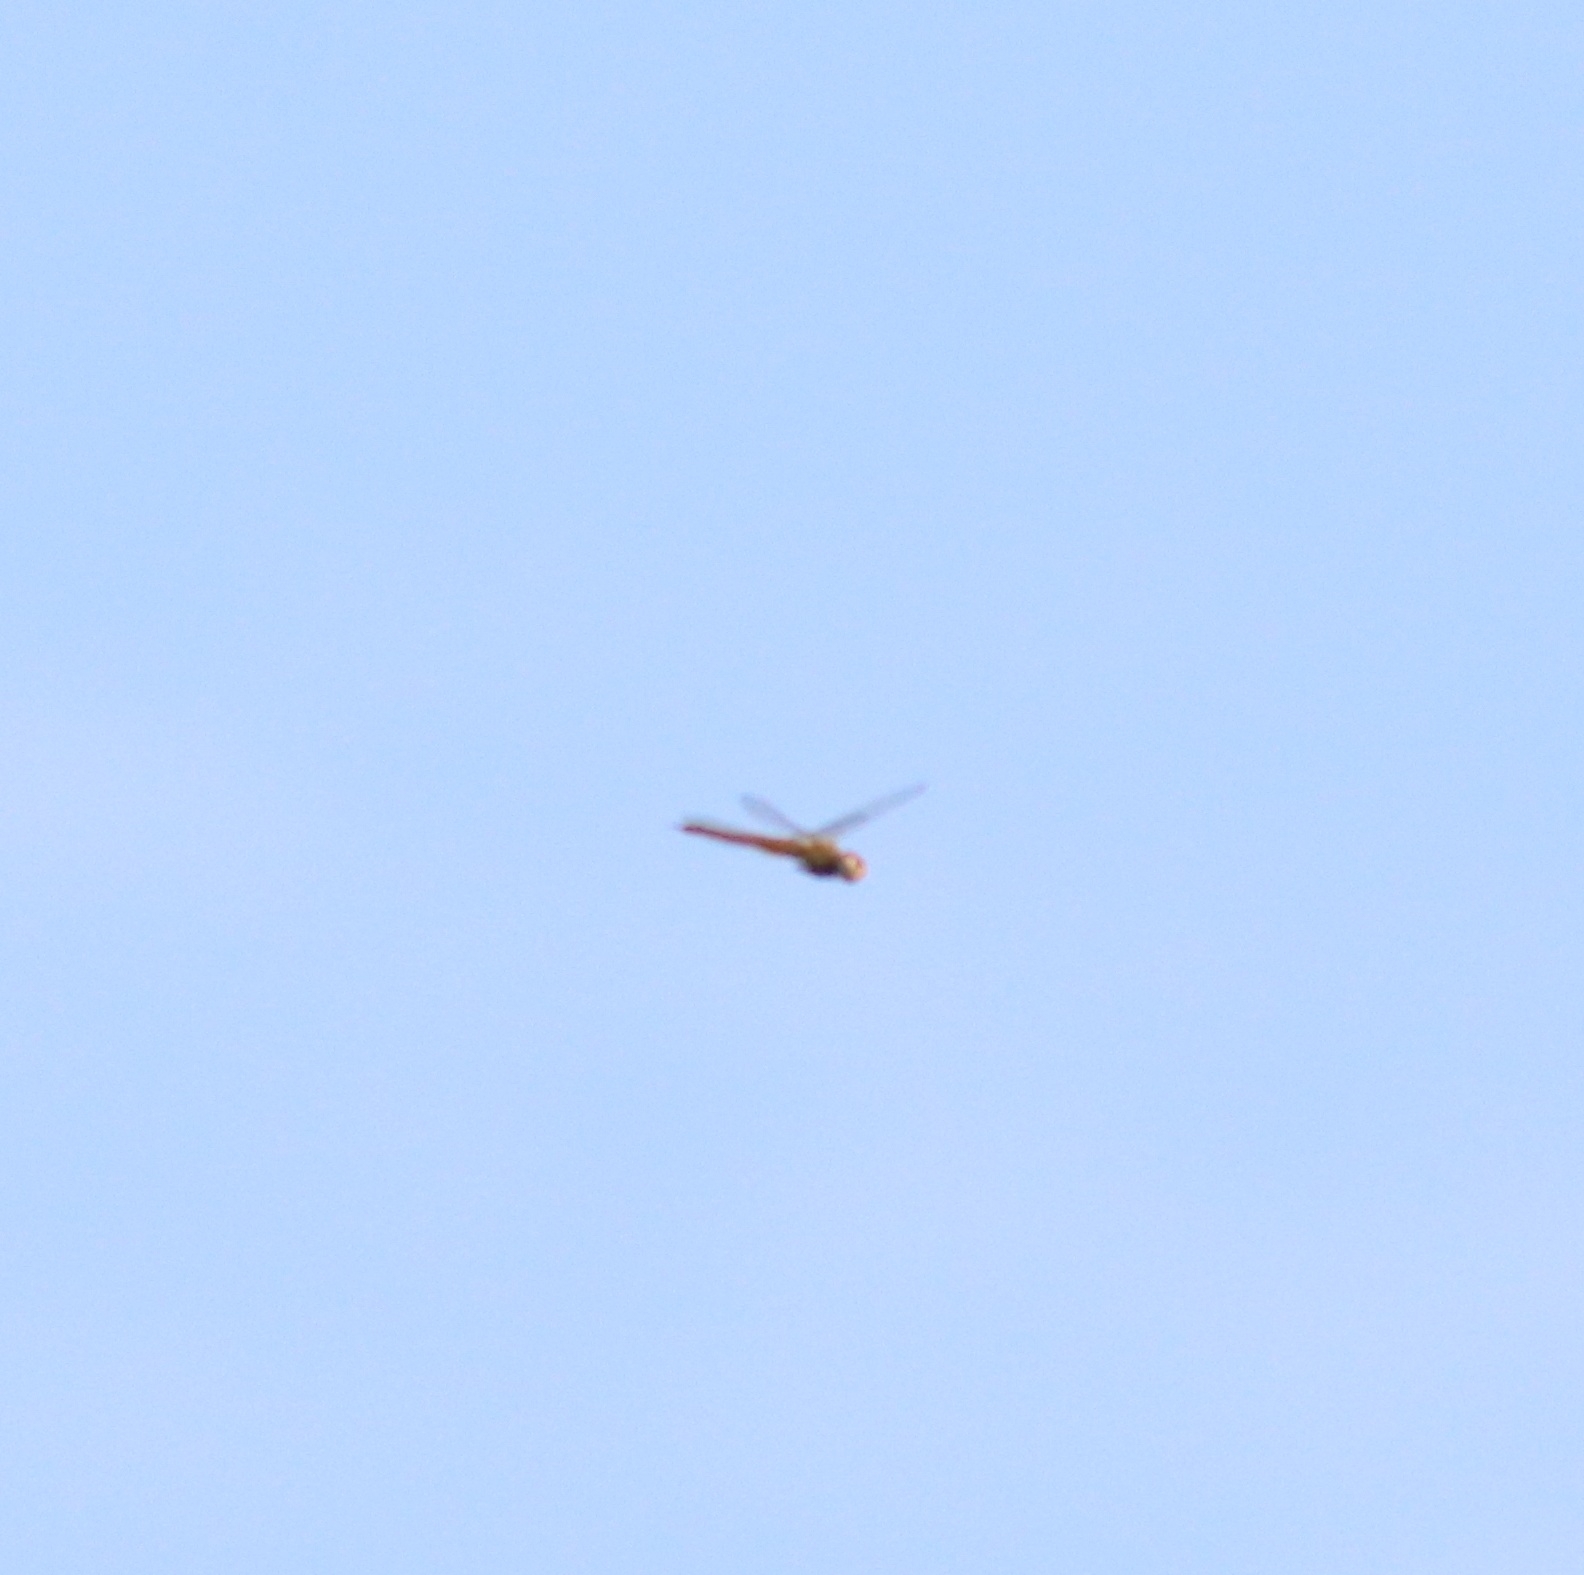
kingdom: Animalia
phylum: Arthropoda
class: Insecta
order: Odonata
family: Libellulidae
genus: Pantala
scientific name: Pantala flavescens
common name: Wandering glider
